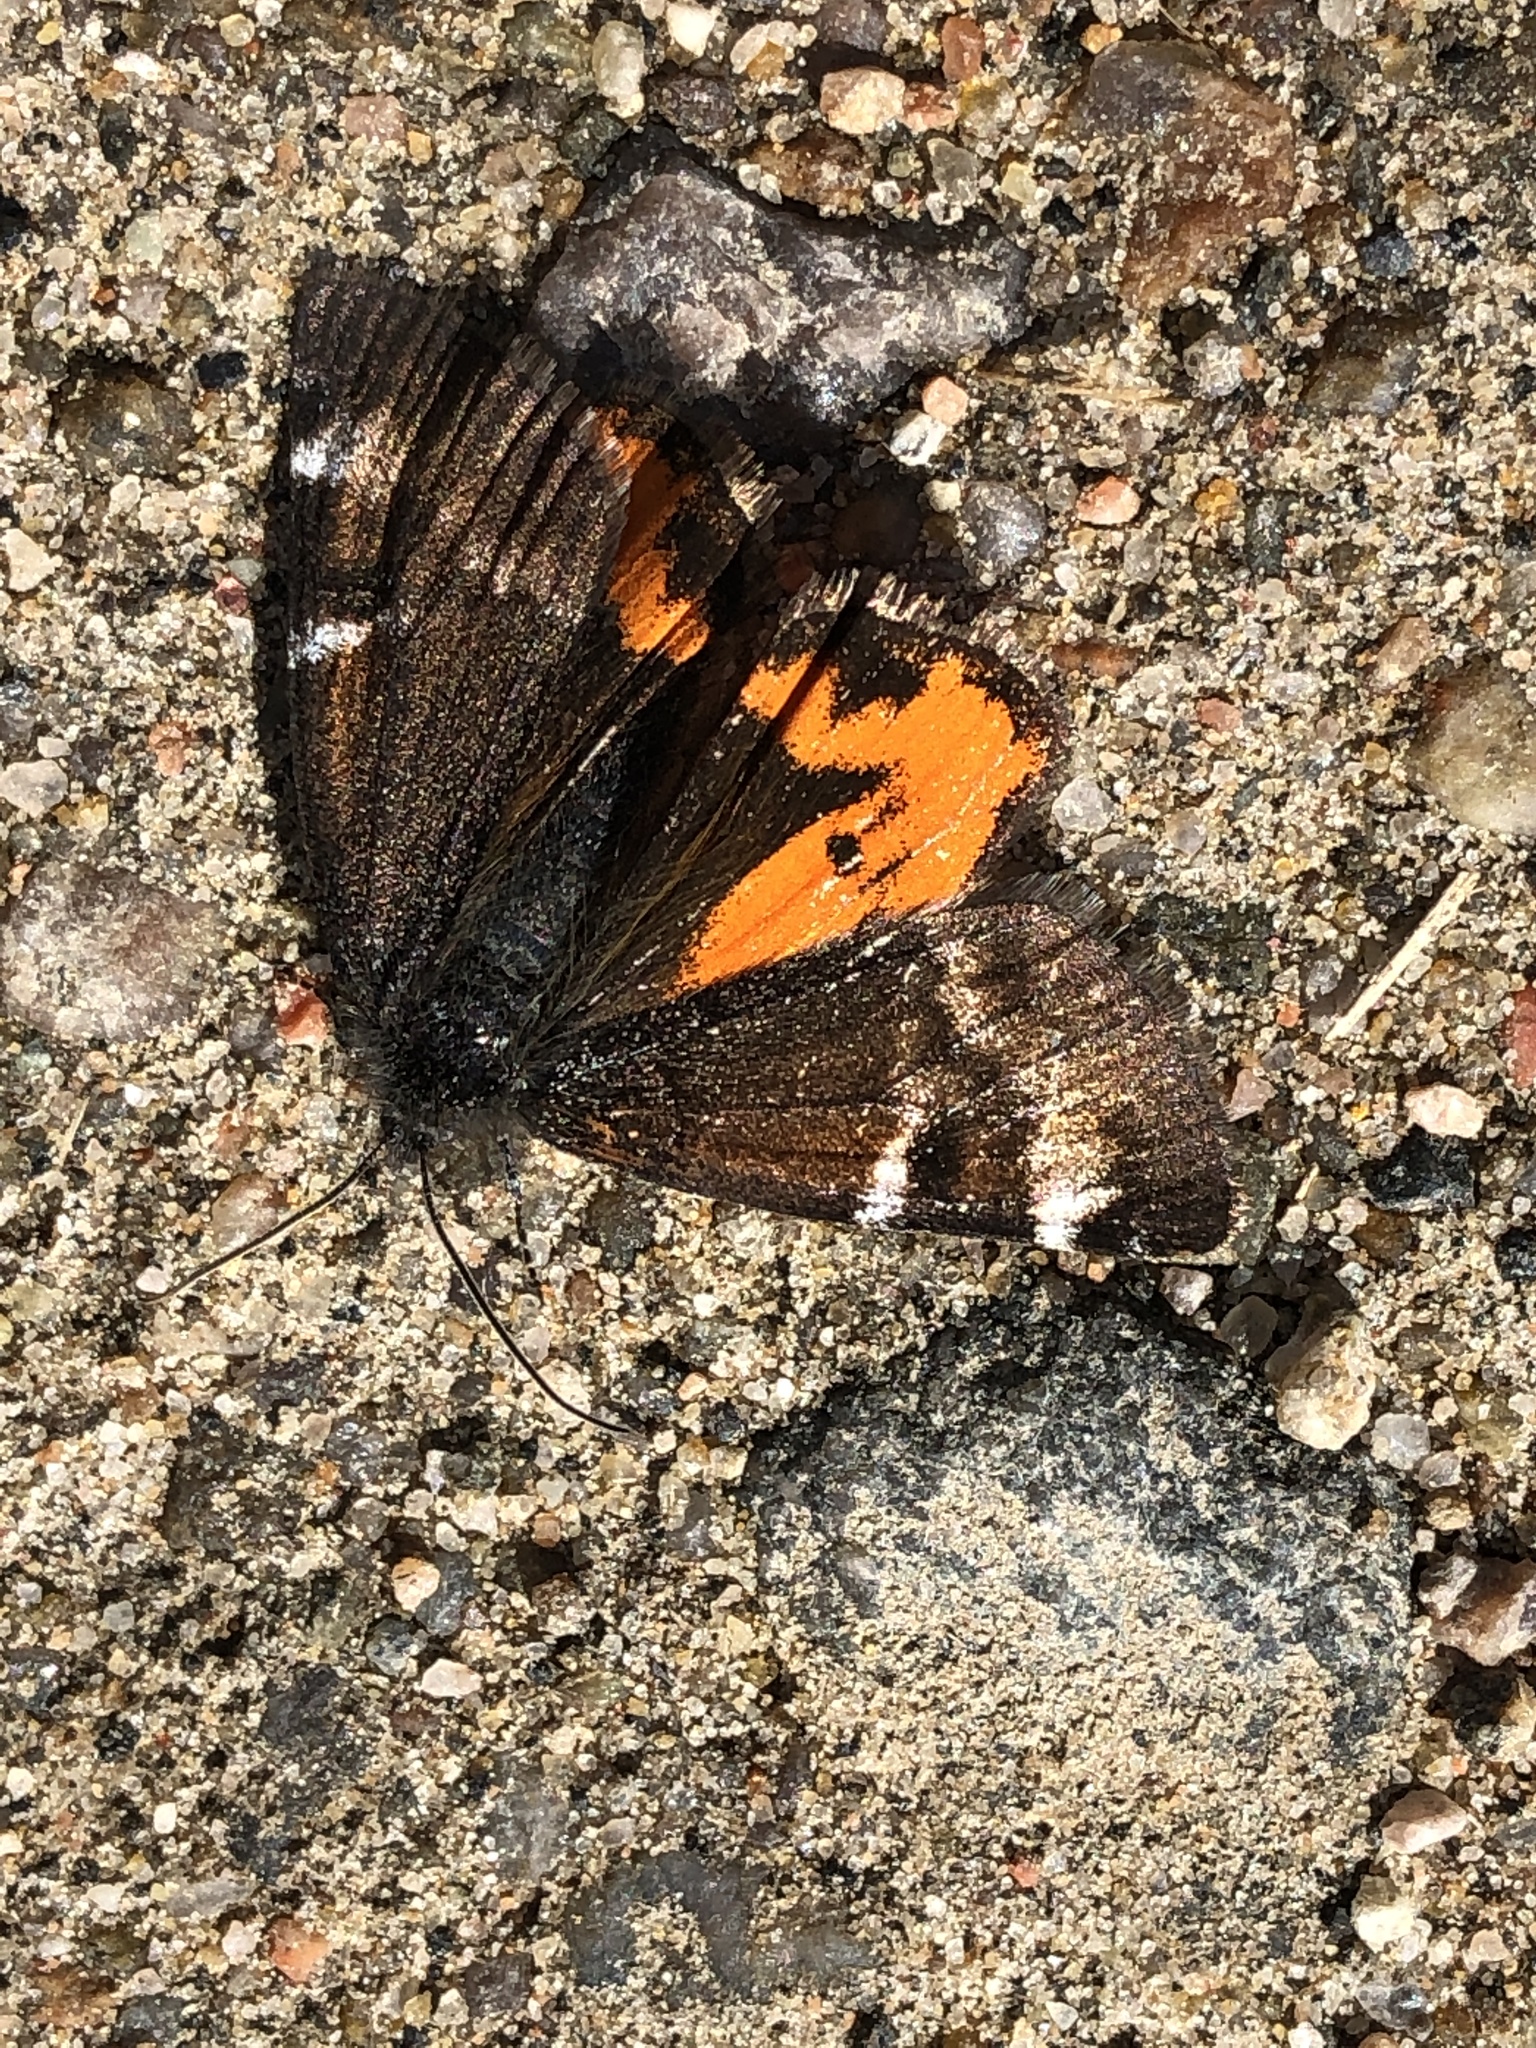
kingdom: Animalia
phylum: Arthropoda
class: Insecta
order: Lepidoptera
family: Geometridae
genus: Archiearis
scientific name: Archiearis infans
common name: First born geometer
